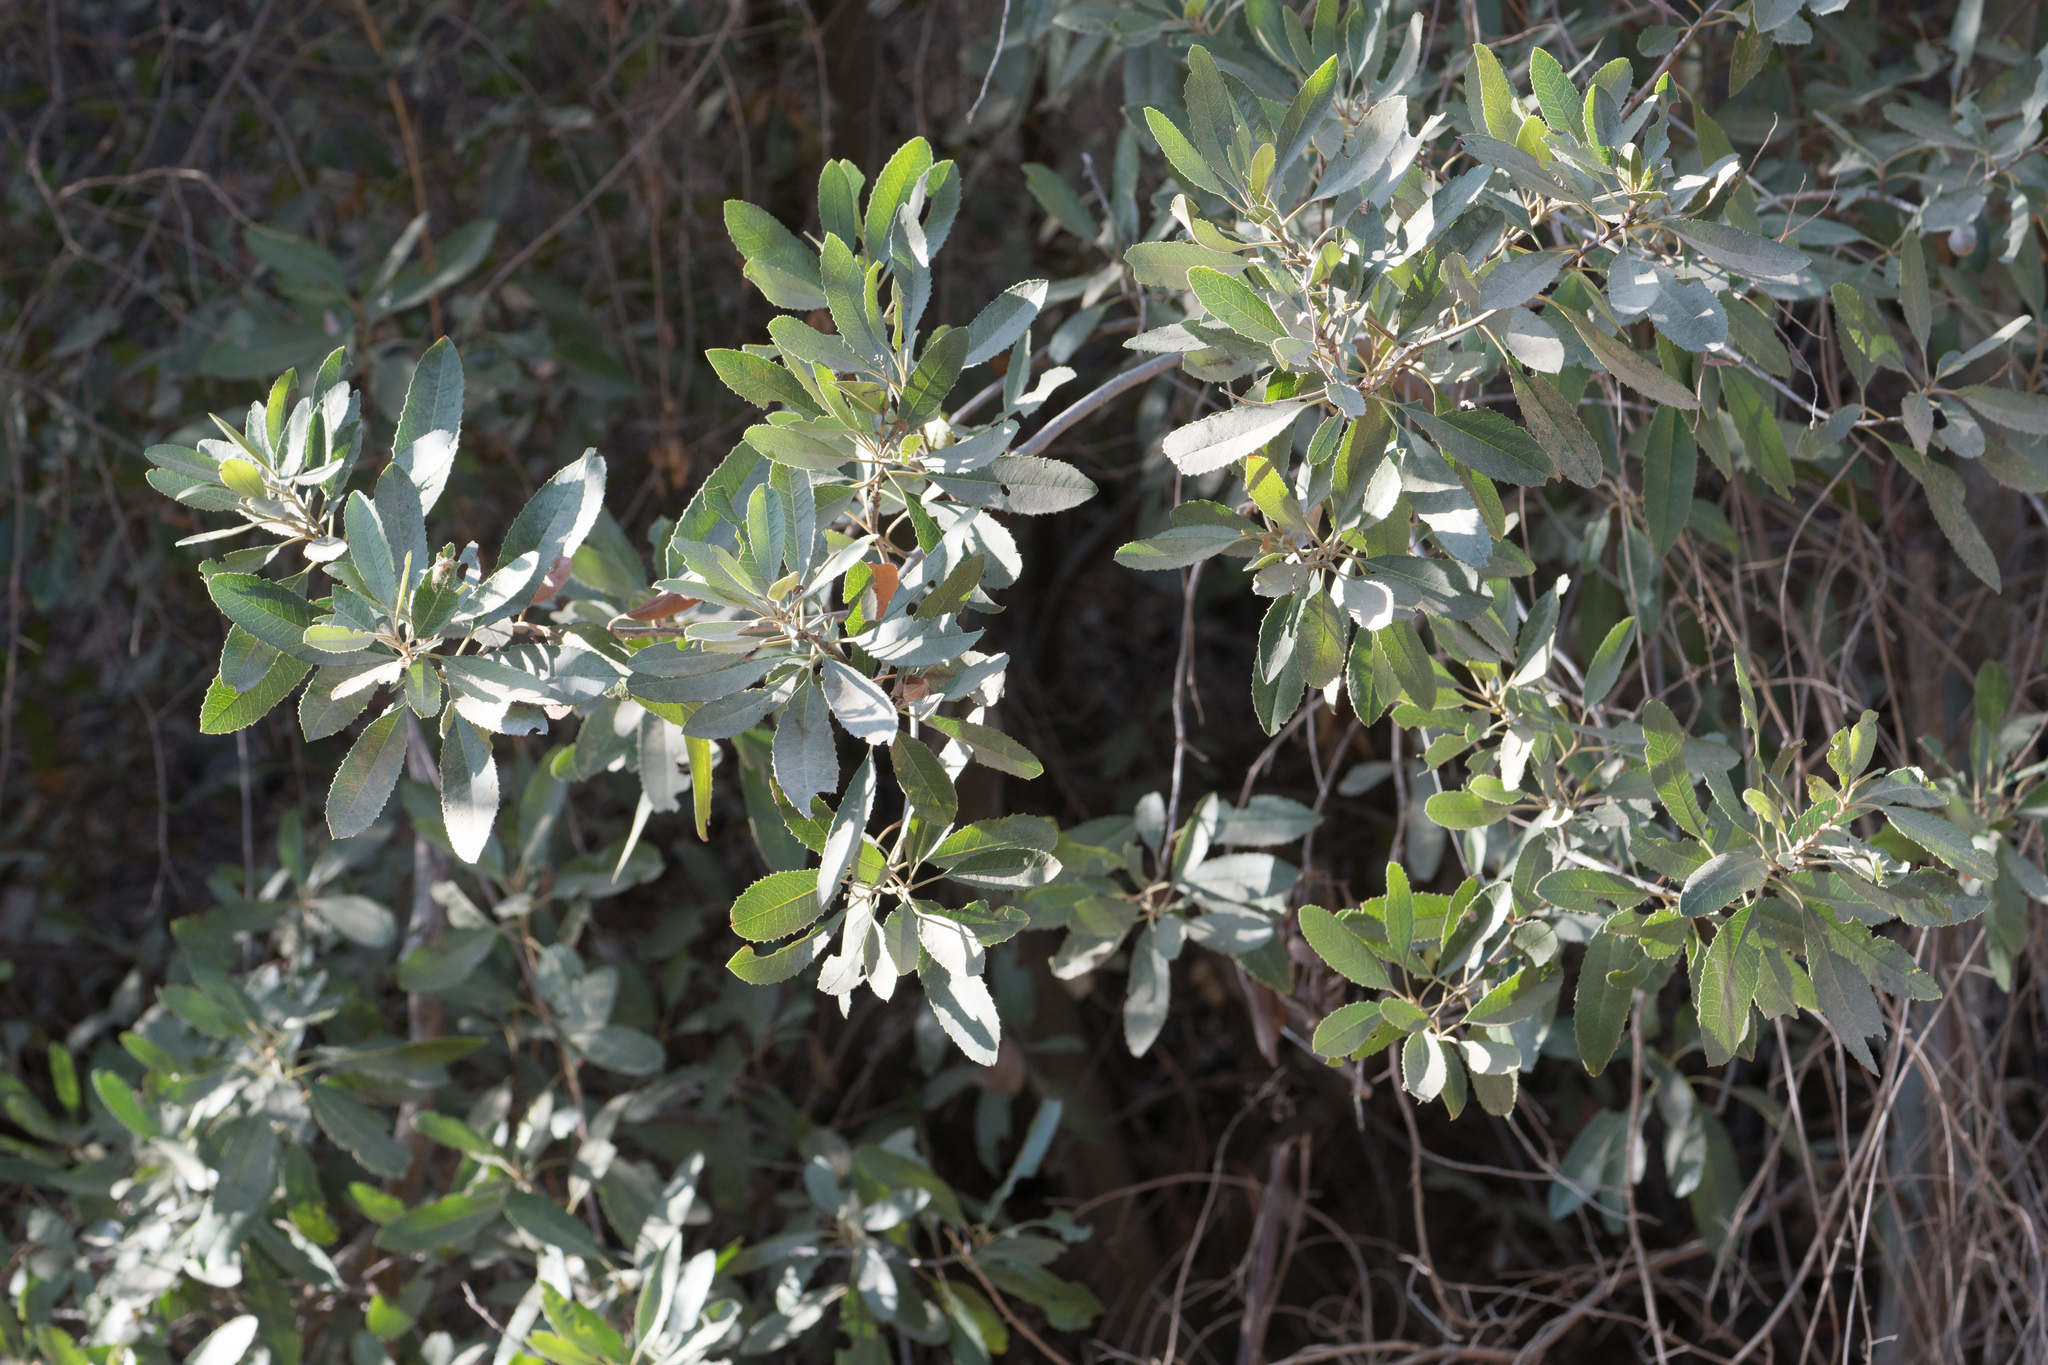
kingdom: Plantae
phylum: Tracheophyta
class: Magnoliopsida
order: Rosales
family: Rosaceae
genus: Heteromeles
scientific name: Heteromeles arbutifolia
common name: California-holly
